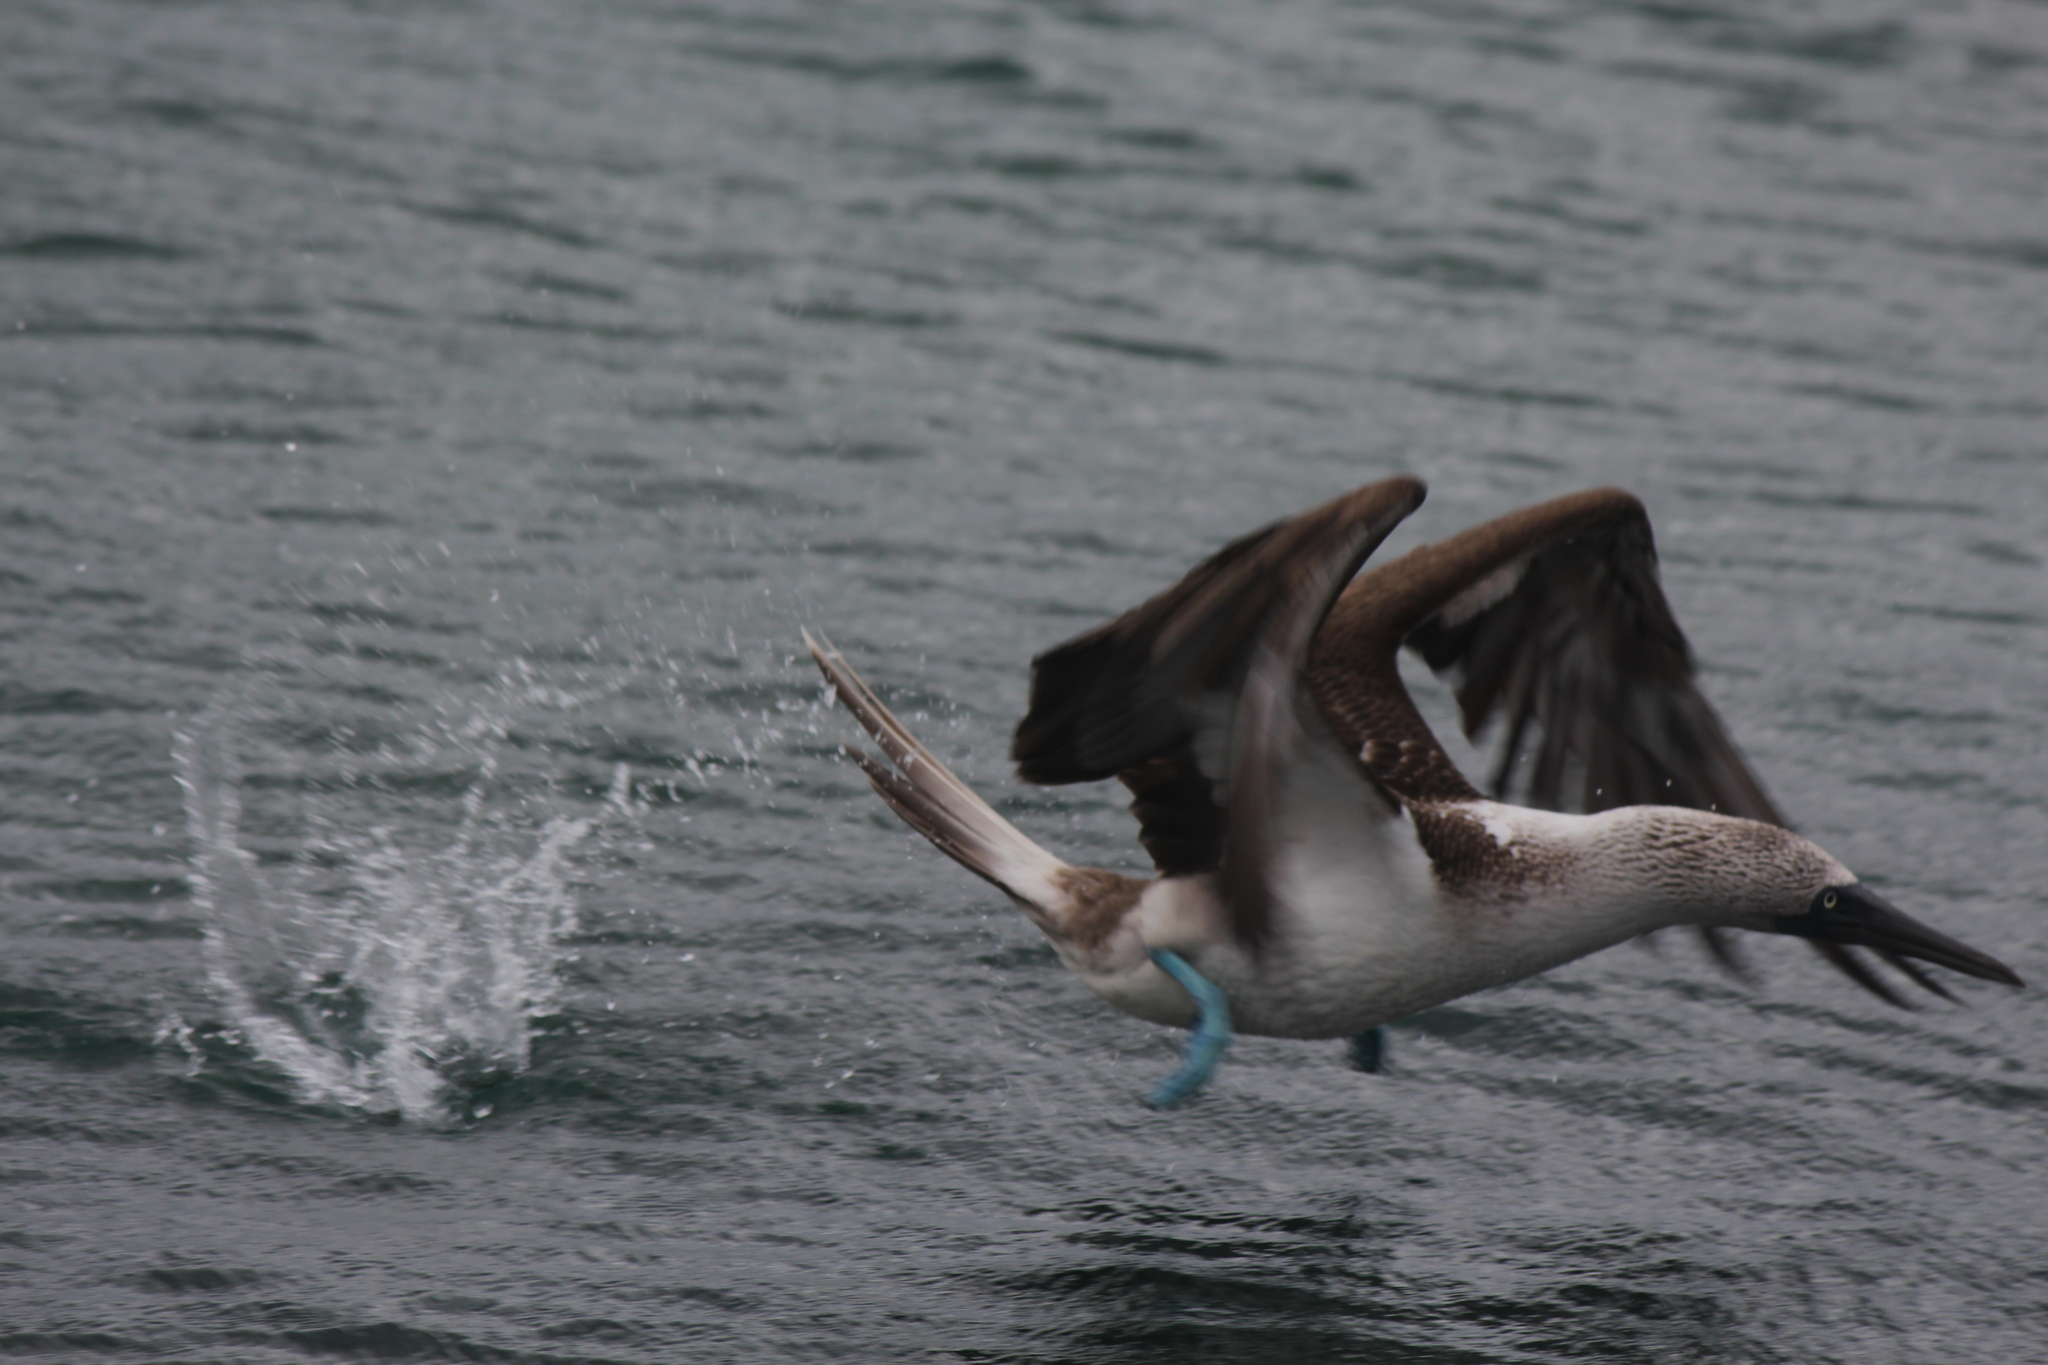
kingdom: Animalia
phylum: Chordata
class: Aves
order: Suliformes
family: Sulidae
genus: Sula
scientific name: Sula nebouxii
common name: Blue-footed booby
